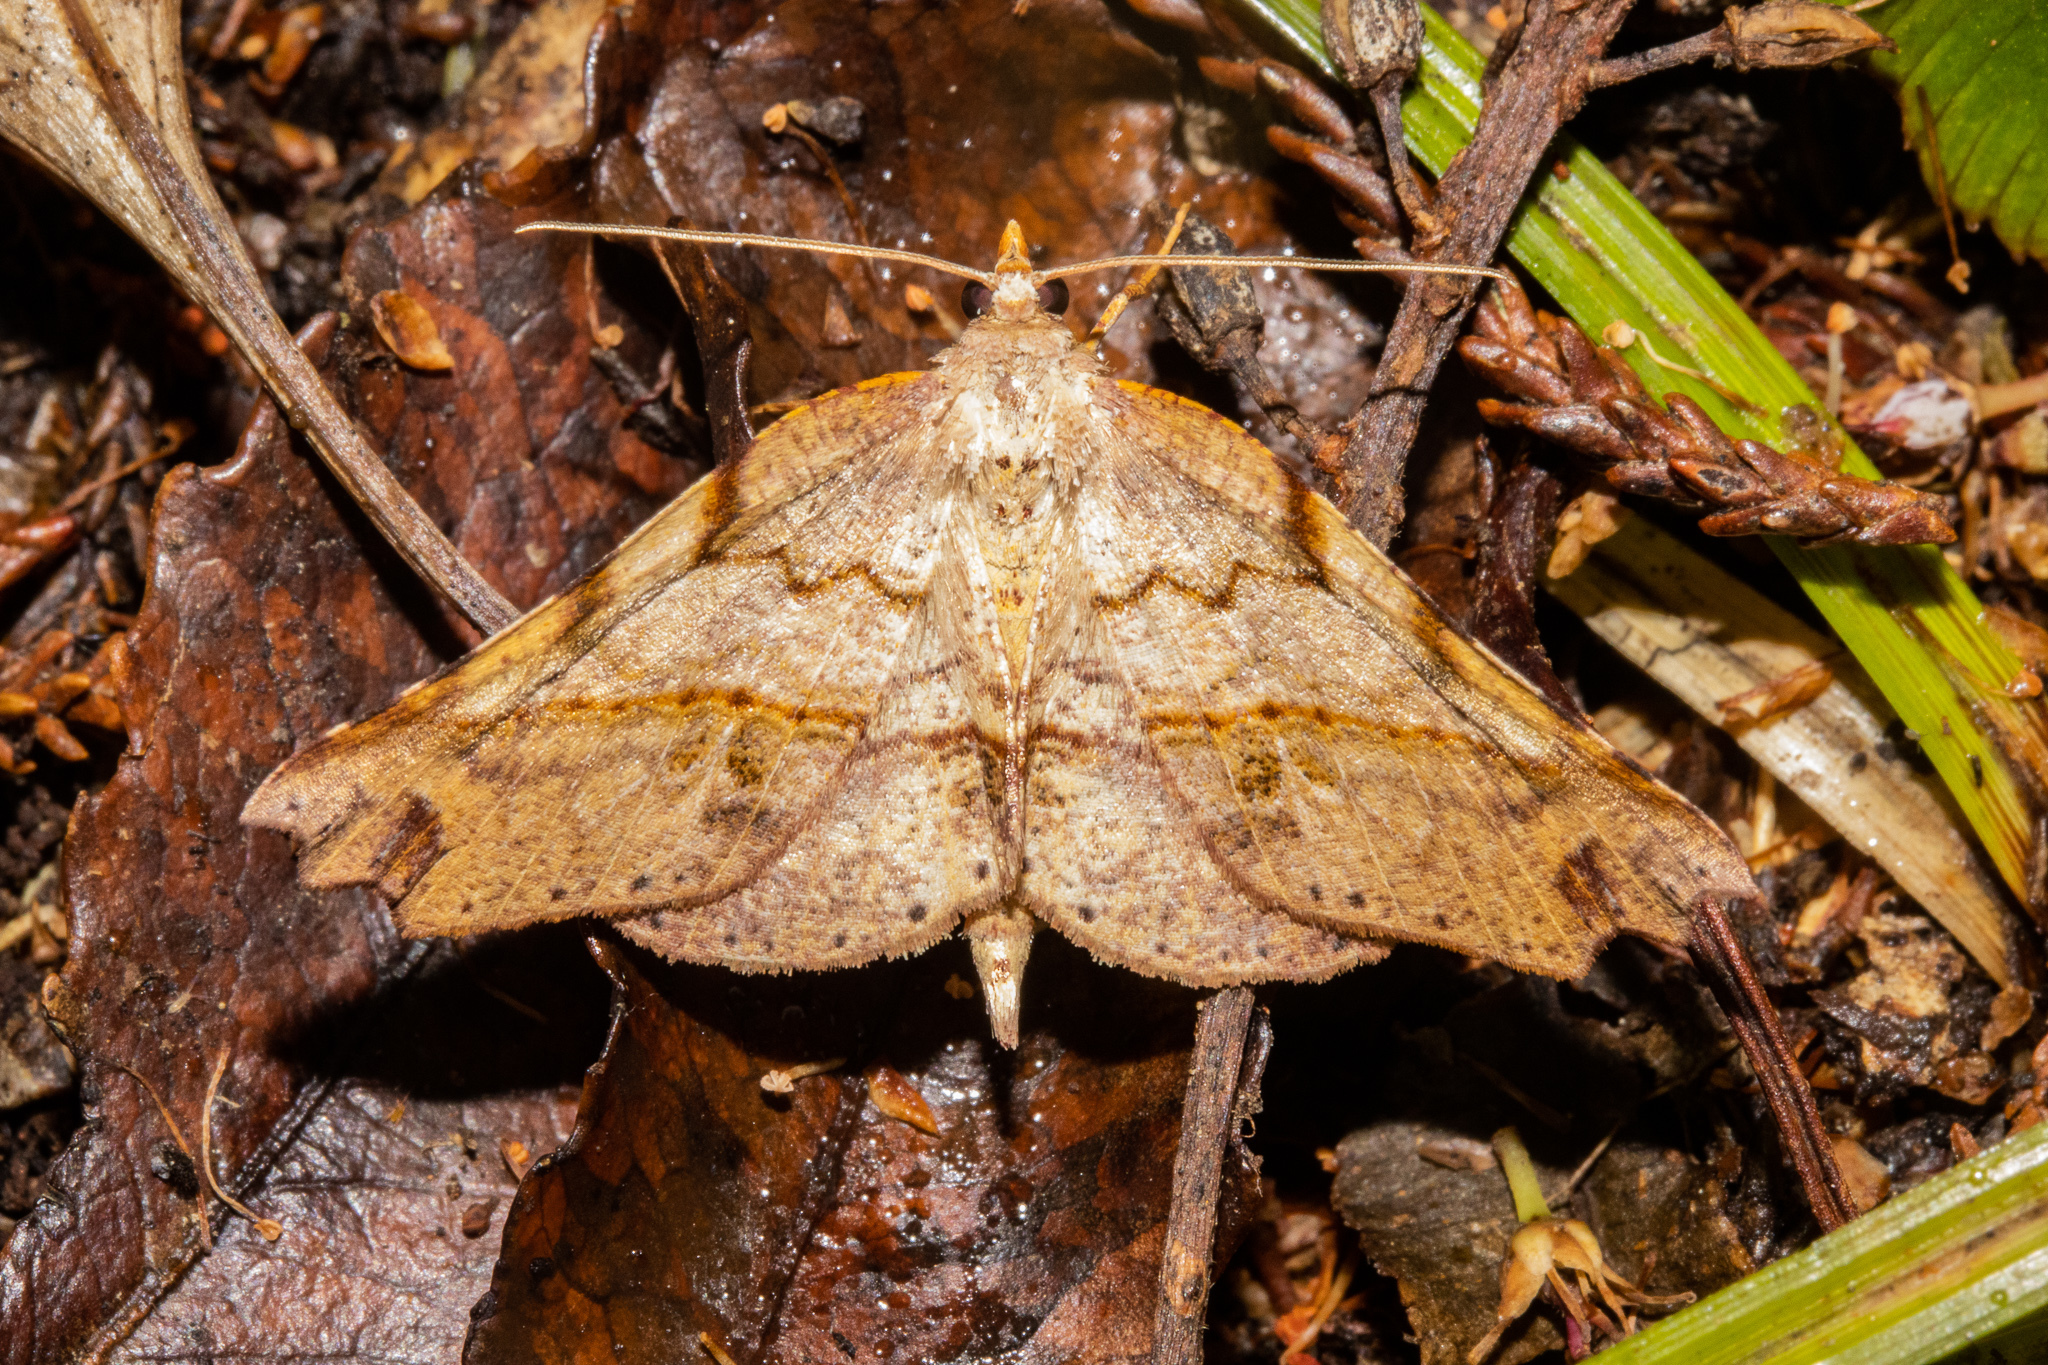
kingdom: Animalia
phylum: Arthropoda
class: Insecta
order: Lepidoptera
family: Geometridae
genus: Ischalis
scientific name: Ischalis gallaria
